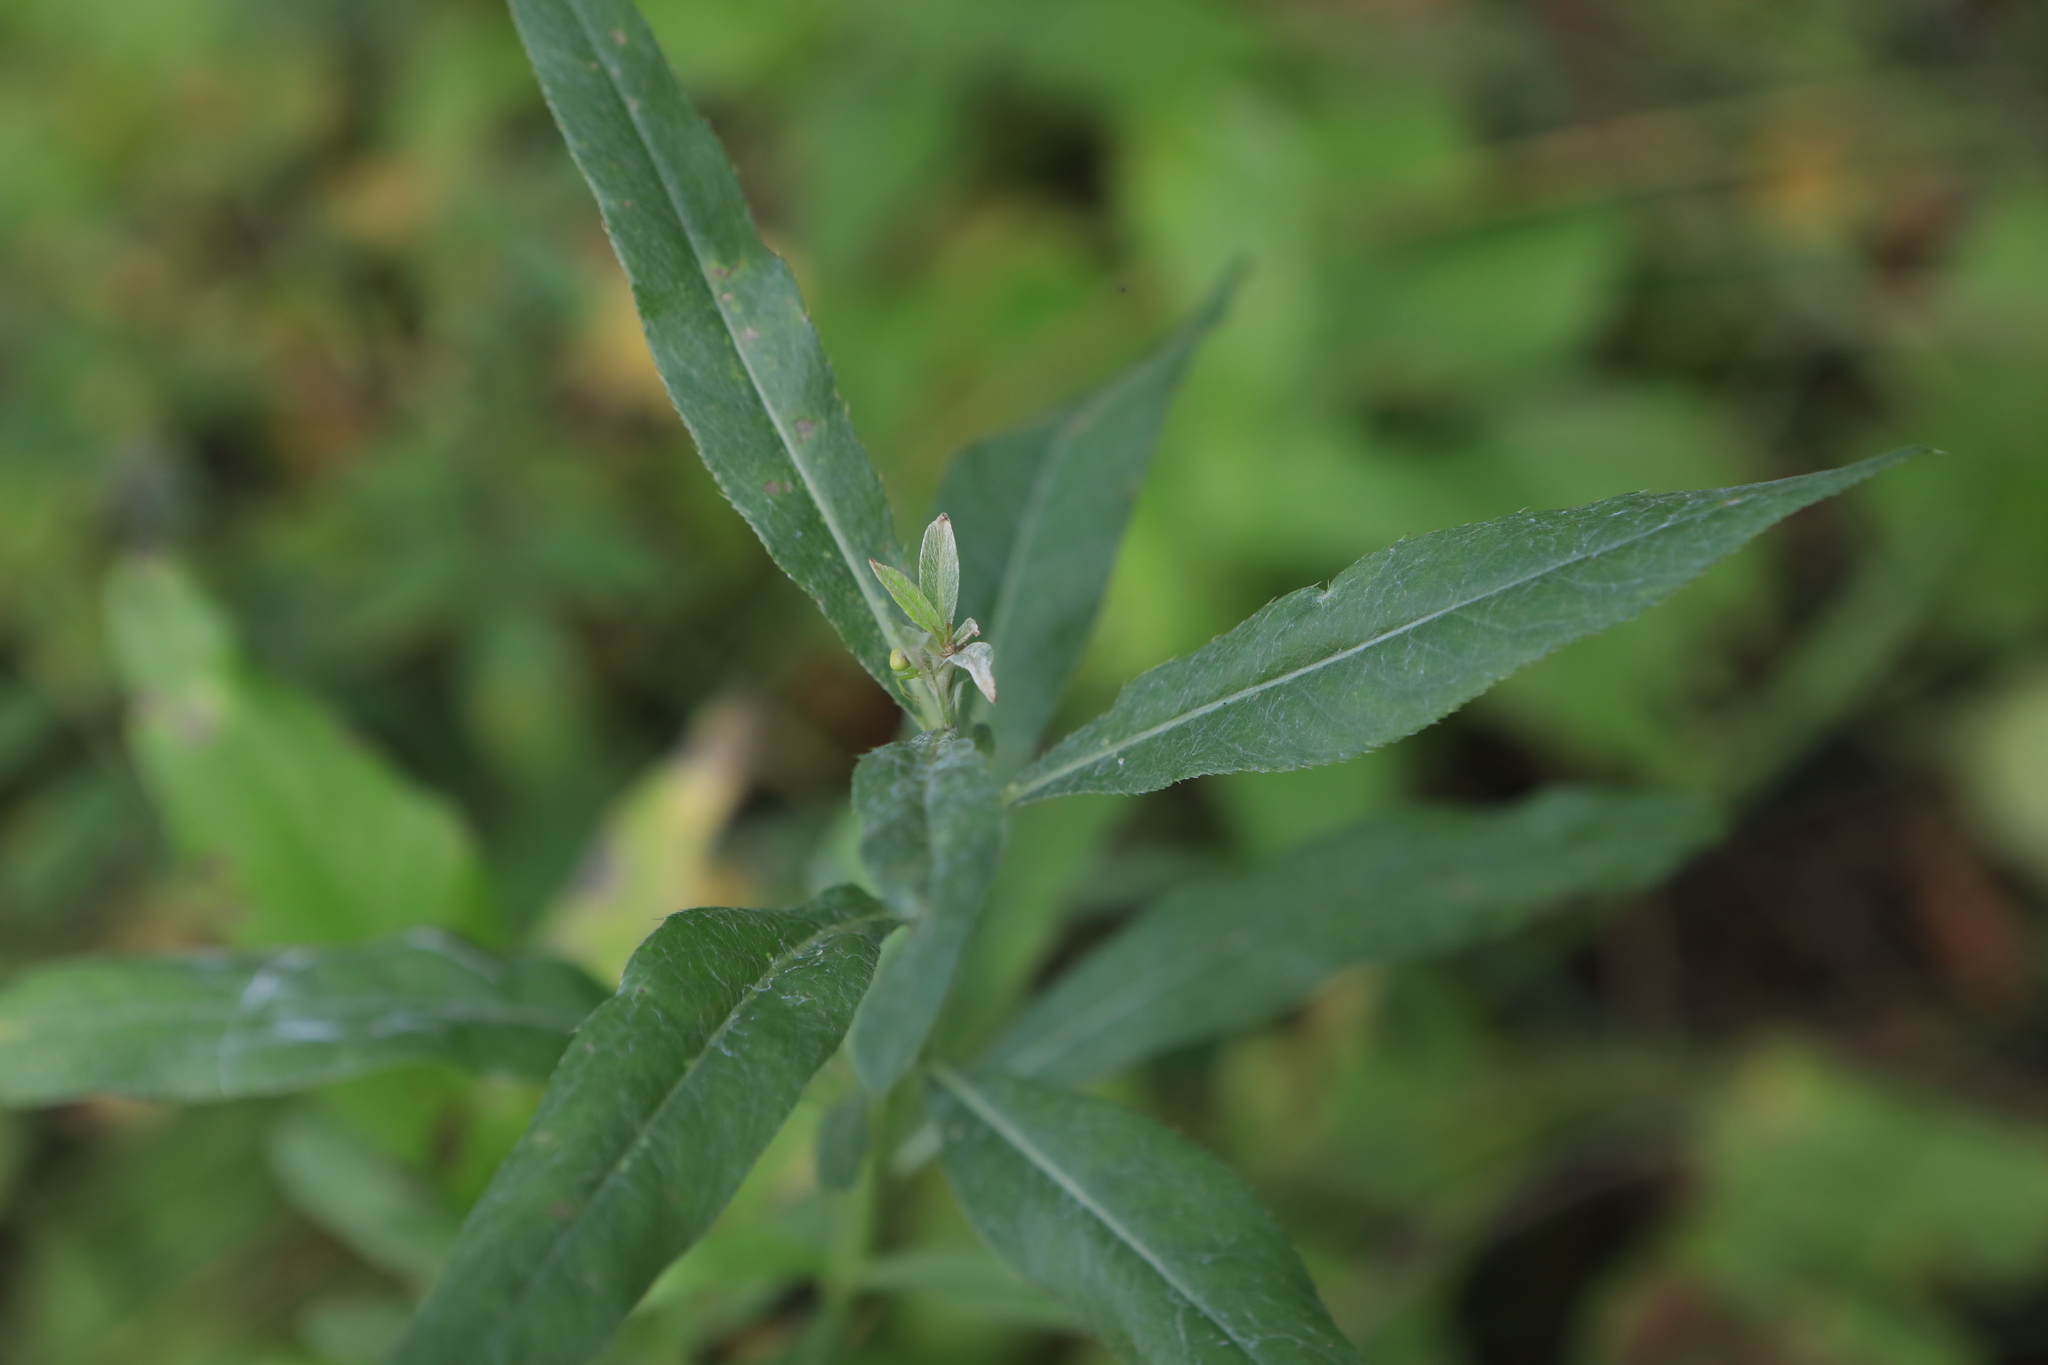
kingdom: Plantae
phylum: Tracheophyta
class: Magnoliopsida
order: Asterales
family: Asteraceae
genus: Cirsium
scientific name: Cirsium arvense
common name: Creeping thistle
